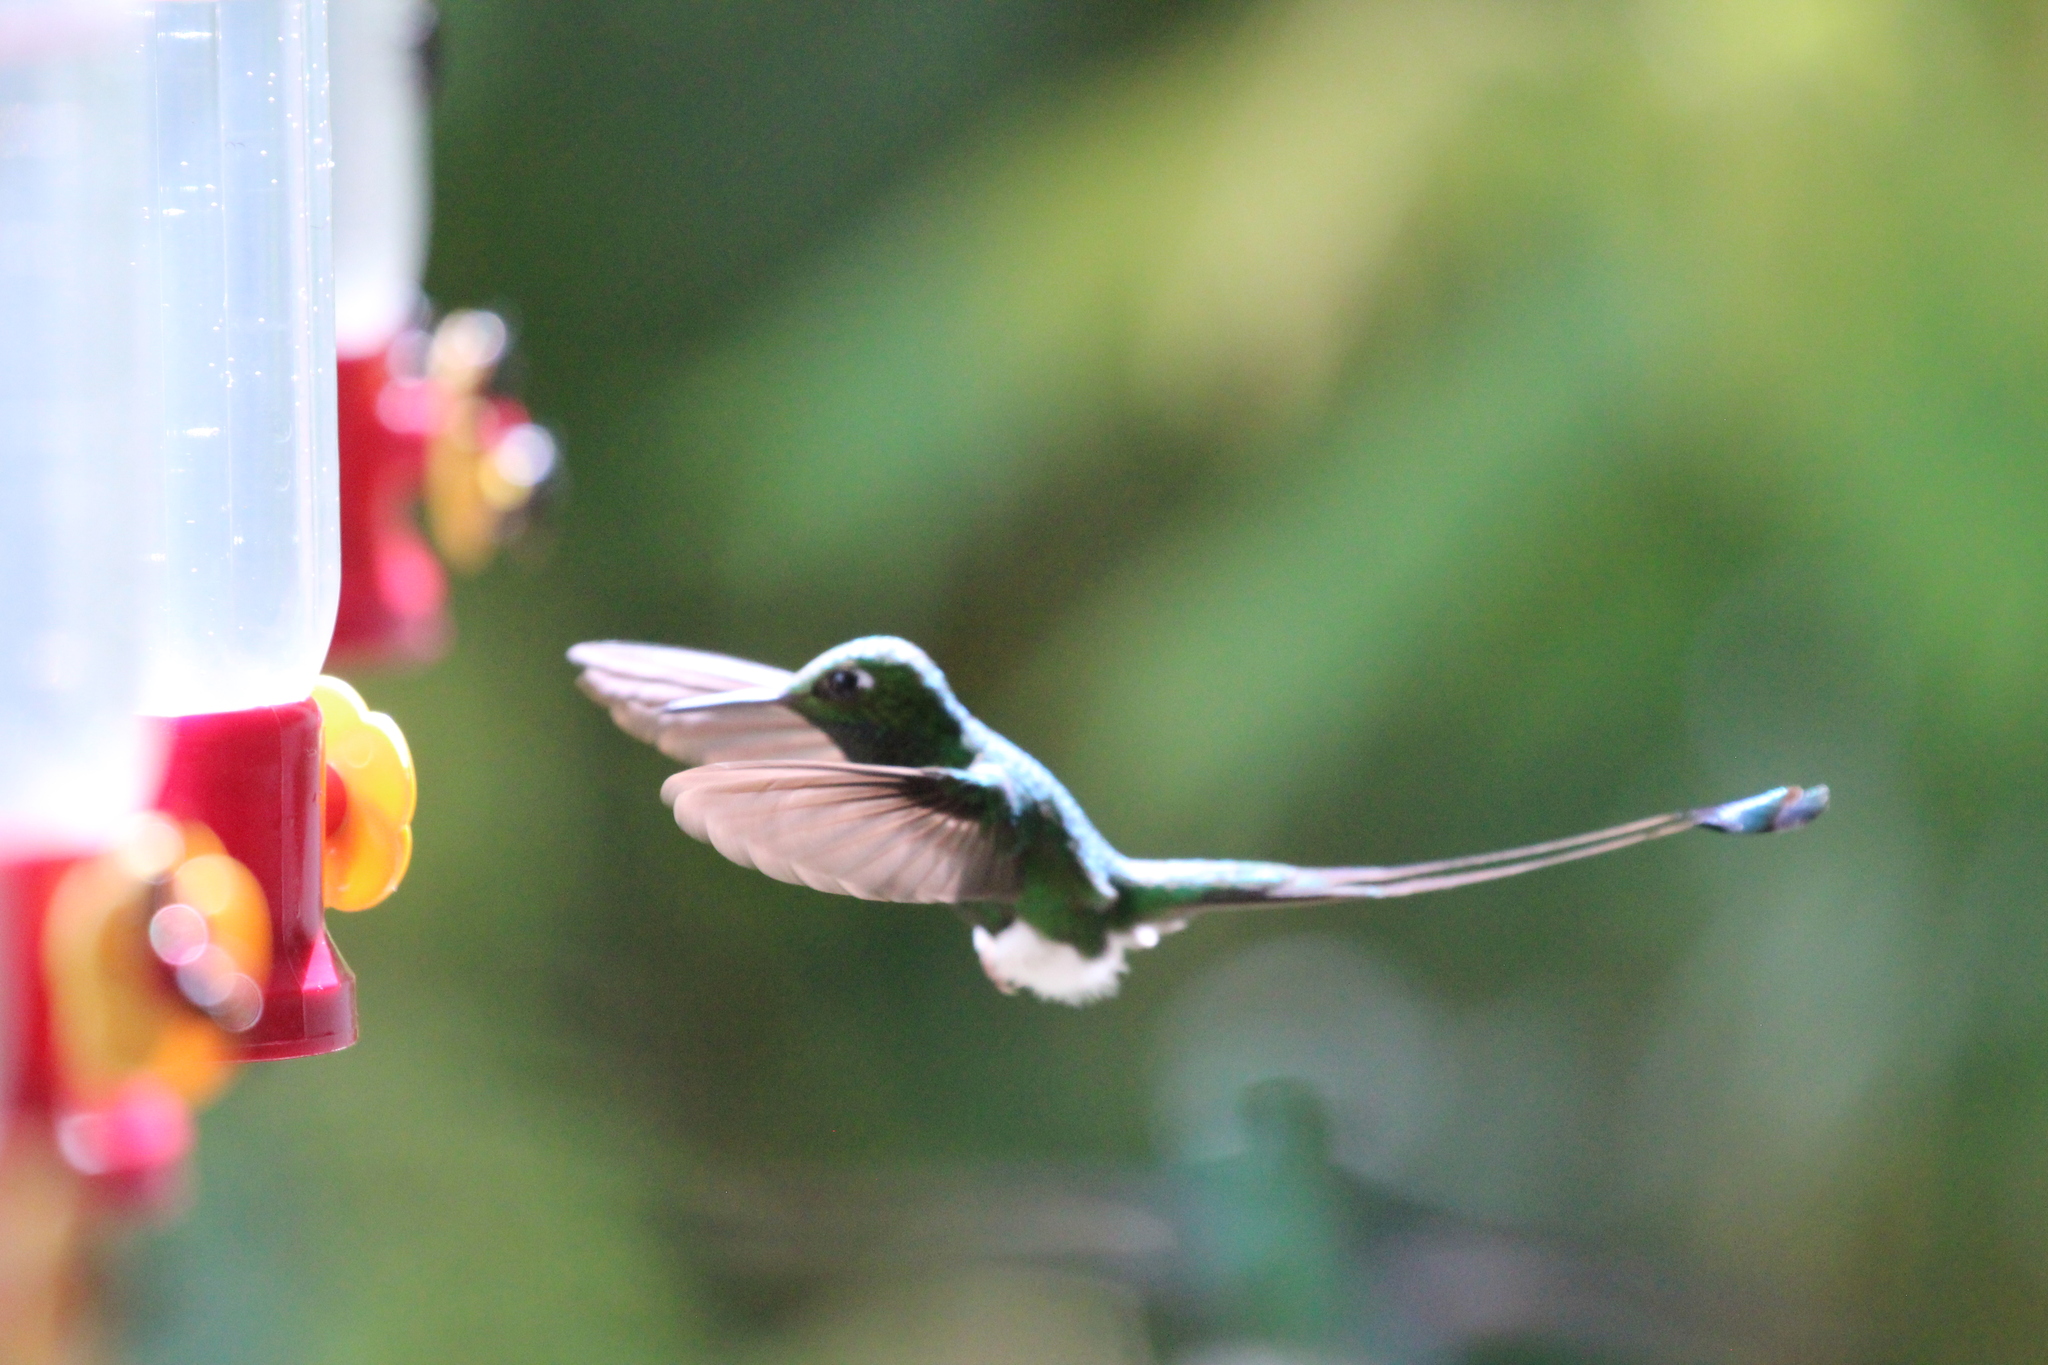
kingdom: Animalia
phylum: Chordata
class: Aves
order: Apodiformes
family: Trochilidae
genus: Ocreatus
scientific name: Ocreatus underwoodii
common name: Booted racket-tail
